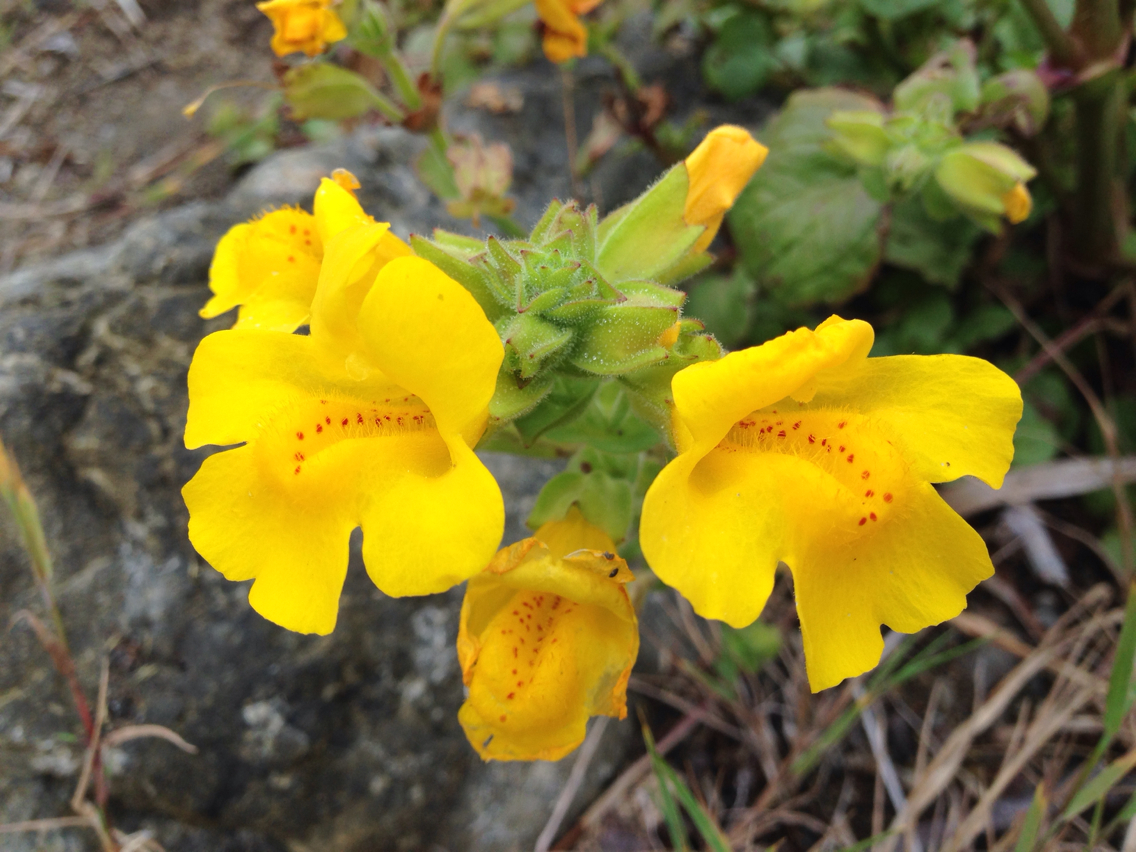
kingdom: Plantae
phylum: Tracheophyta
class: Magnoliopsida
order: Lamiales
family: Phrymaceae
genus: Erythranthe
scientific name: Erythranthe grandis
